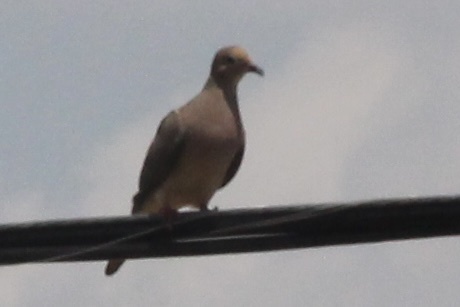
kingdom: Animalia
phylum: Chordata
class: Aves
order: Columbiformes
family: Columbidae
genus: Zenaida
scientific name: Zenaida macroura
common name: Mourning dove
